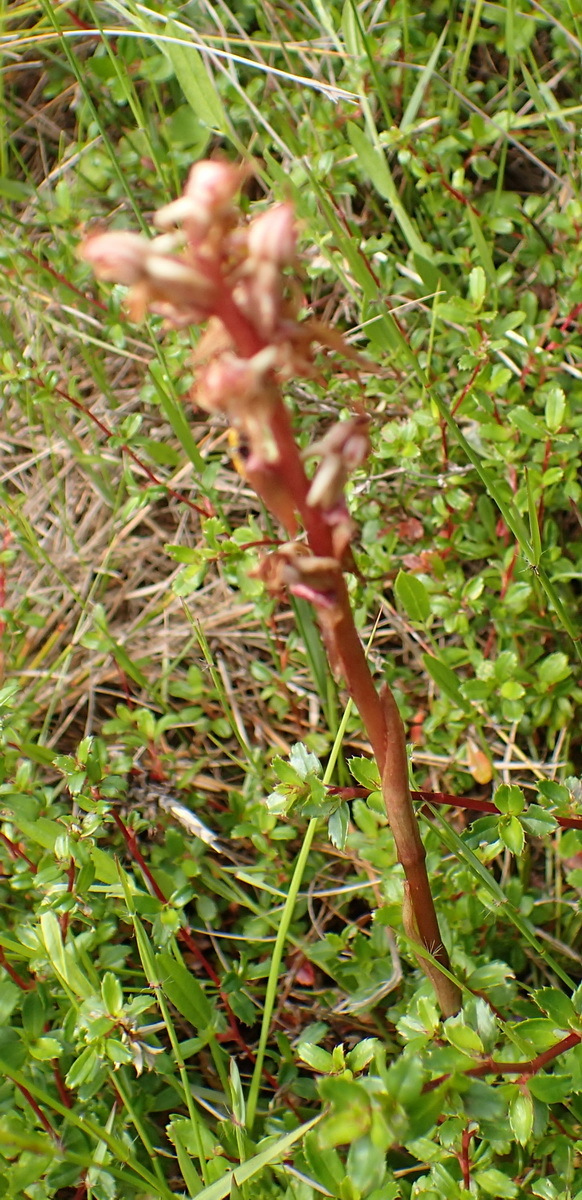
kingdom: Plantae
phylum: Tracheophyta
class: Liliopsida
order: Asparagales
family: Orchidaceae
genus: Satyrium
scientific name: Satyrium ligulatum
